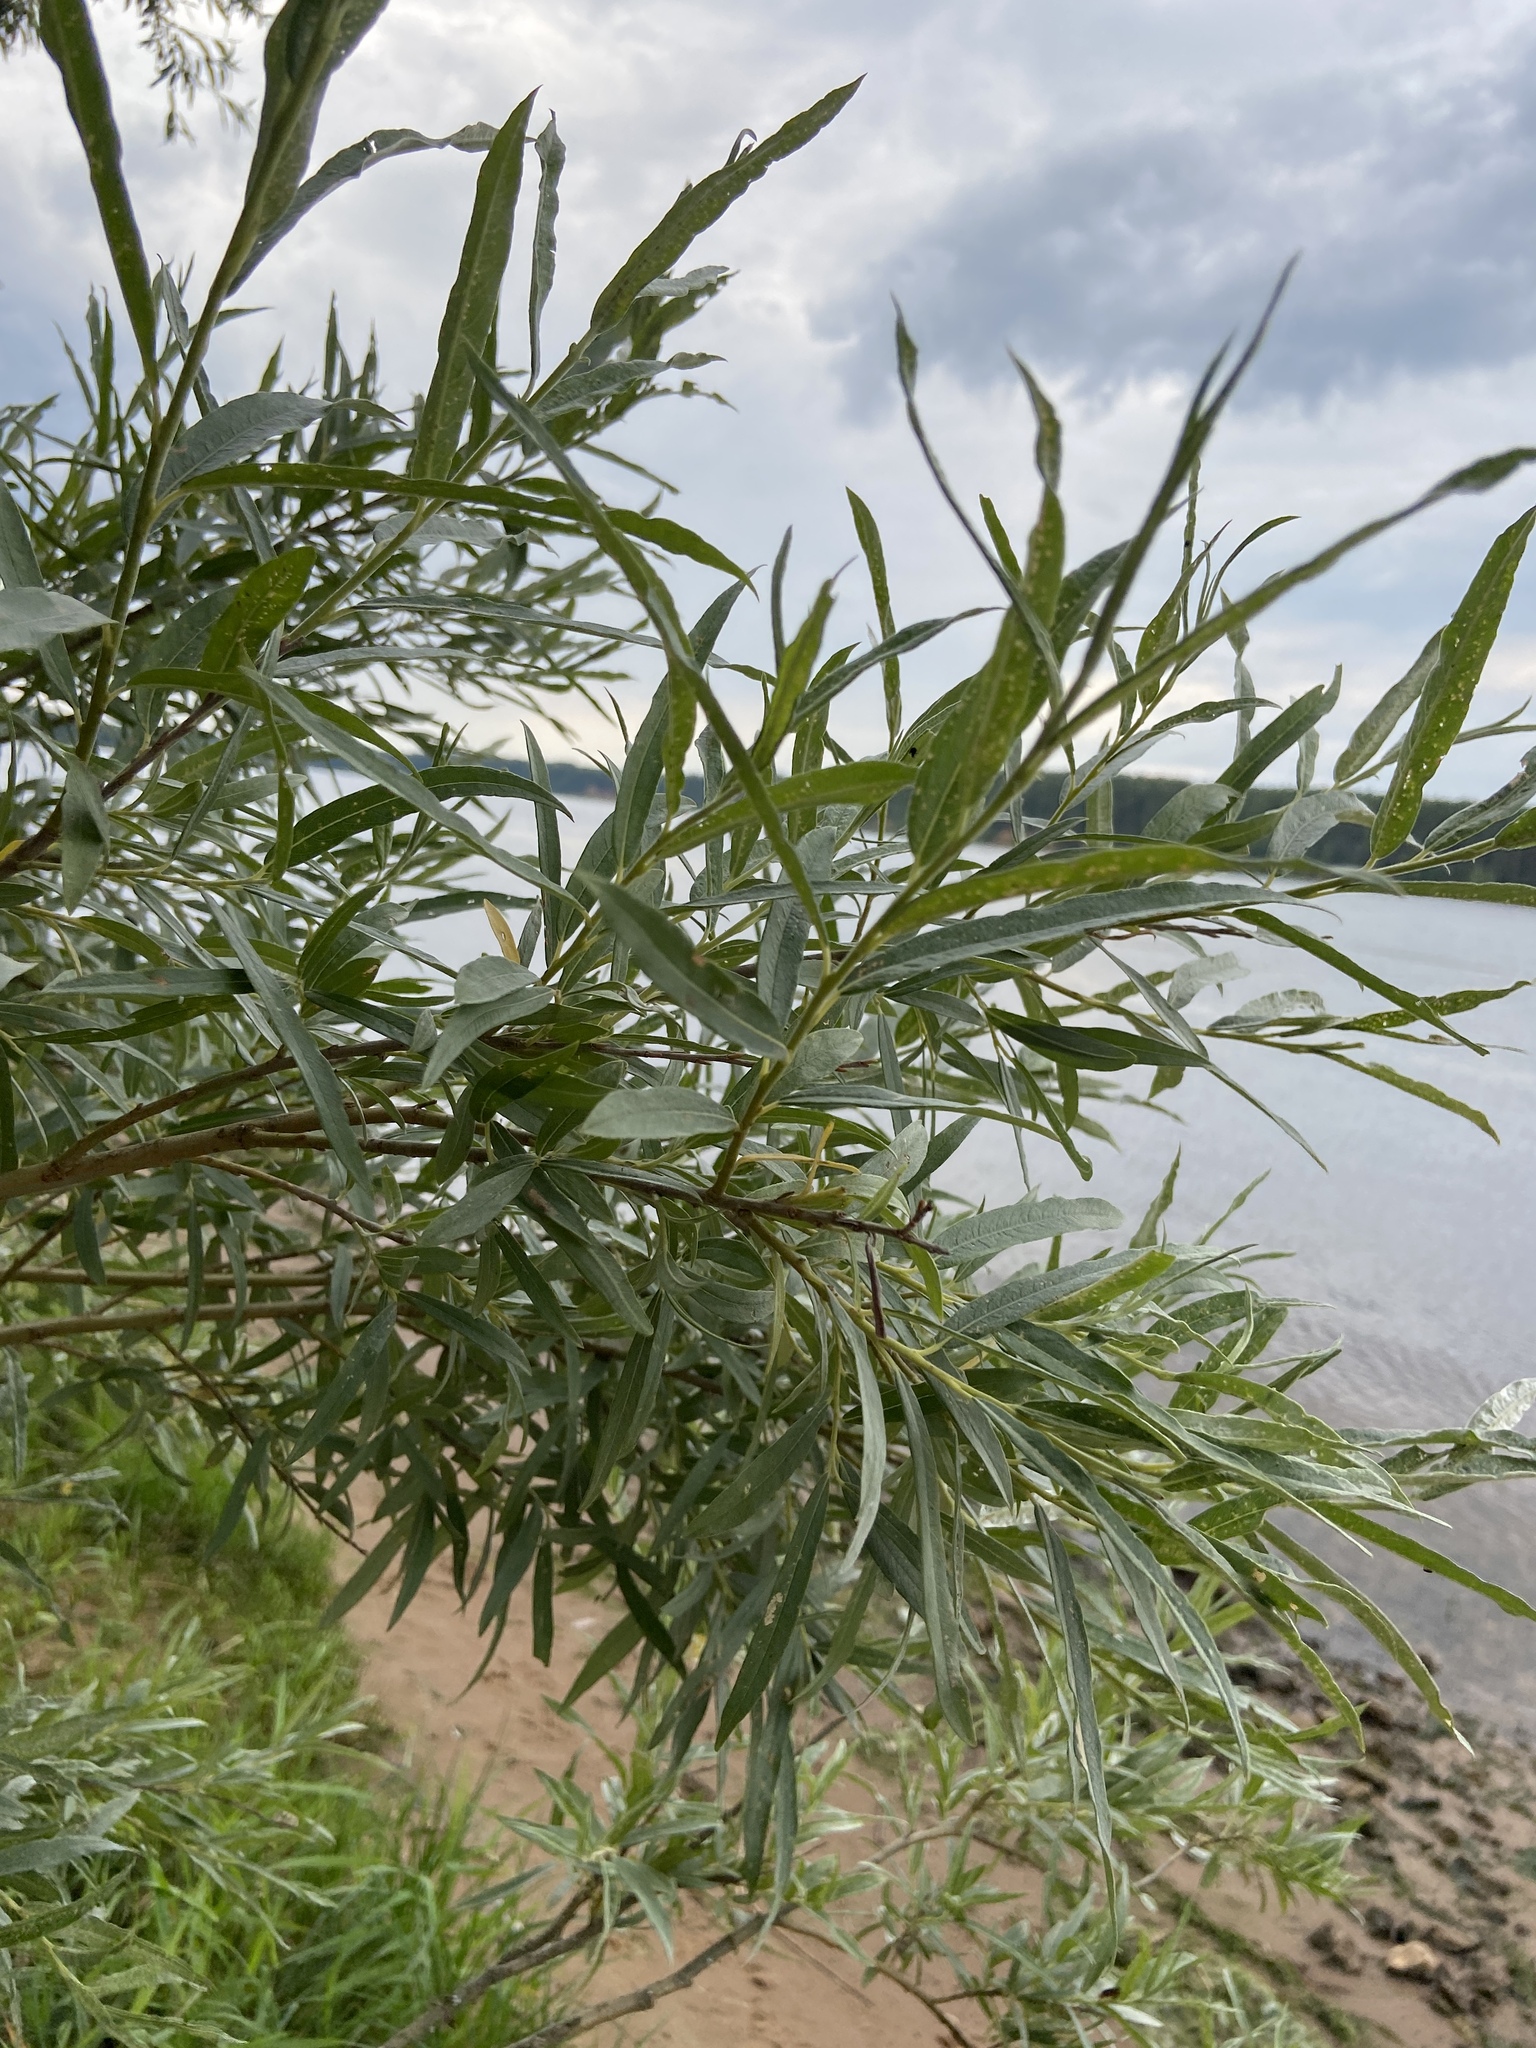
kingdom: Plantae
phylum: Tracheophyta
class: Magnoliopsida
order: Malpighiales
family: Salicaceae
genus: Salix
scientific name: Salix viminalis
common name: Osier
